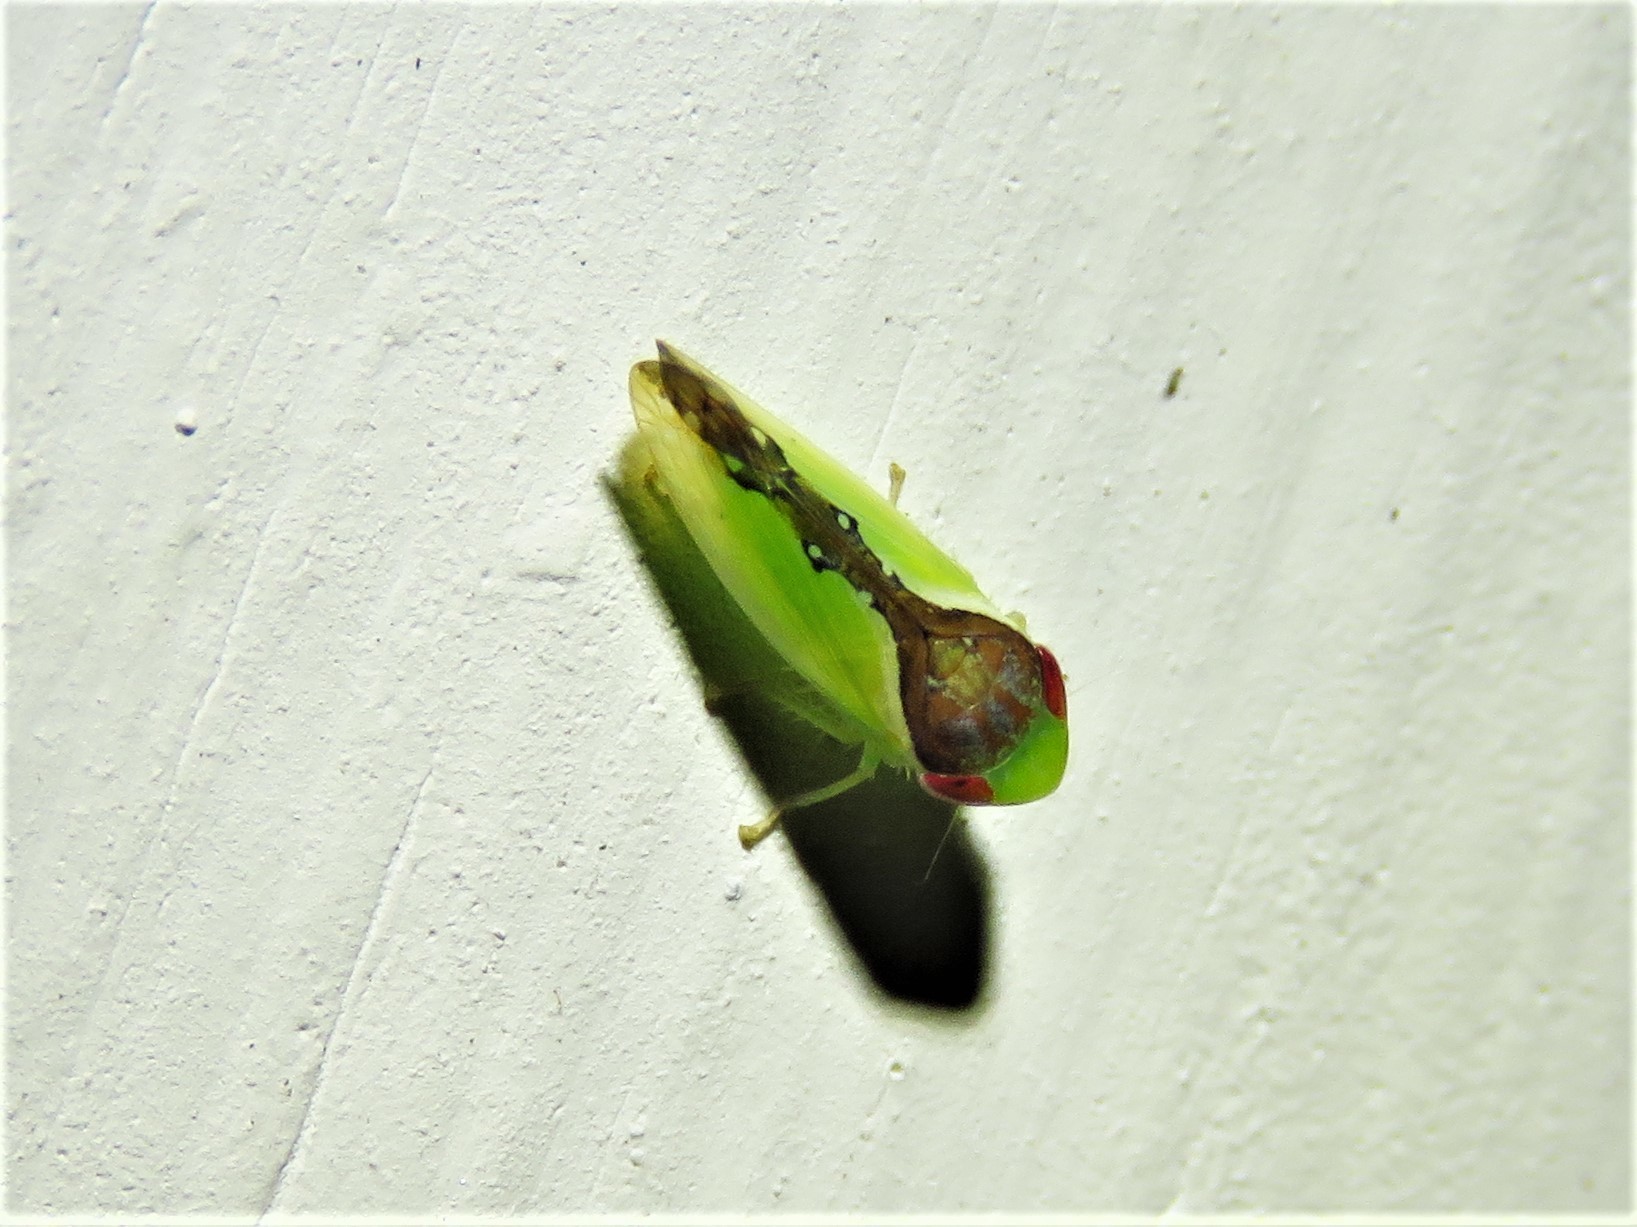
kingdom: Animalia
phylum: Arthropoda
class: Insecta
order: Hemiptera
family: Cicadellidae
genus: Omansobara ing
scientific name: Omansobara ing Omansobara palliolata
